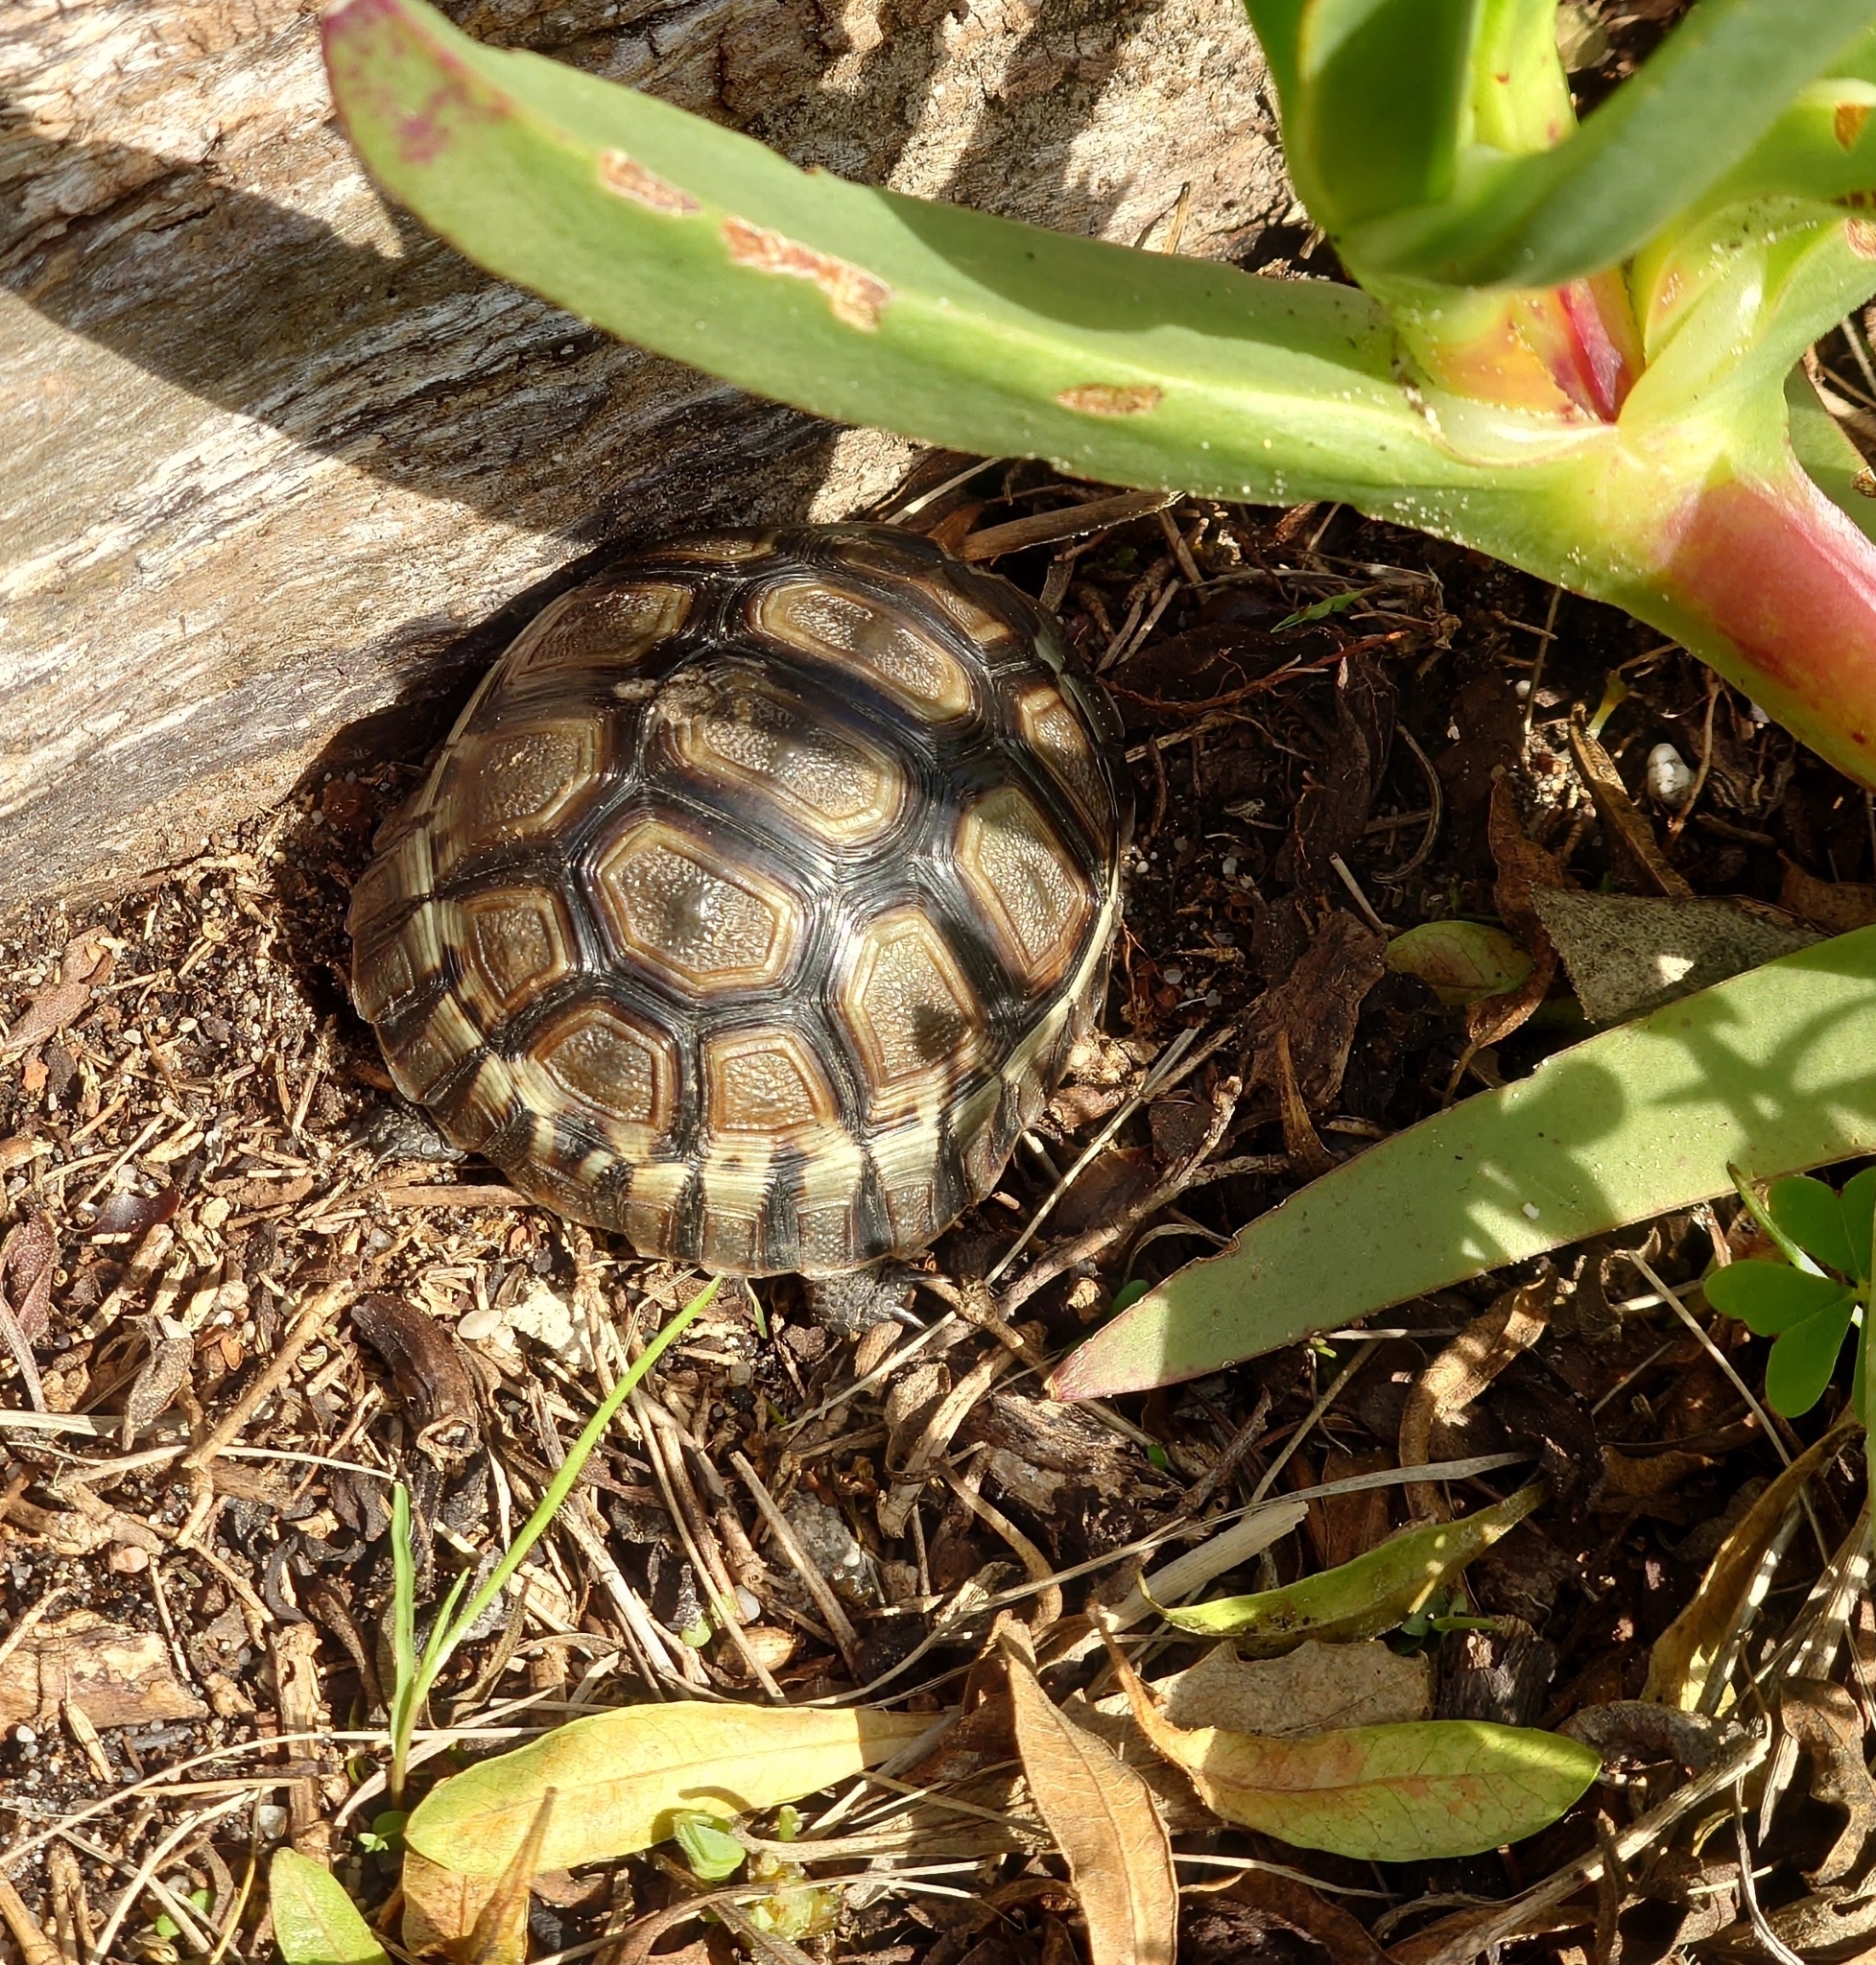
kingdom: Animalia
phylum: Chordata
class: Testudines
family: Testudinidae
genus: Chersina
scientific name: Chersina angulata
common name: South african bowsprit tortoise
